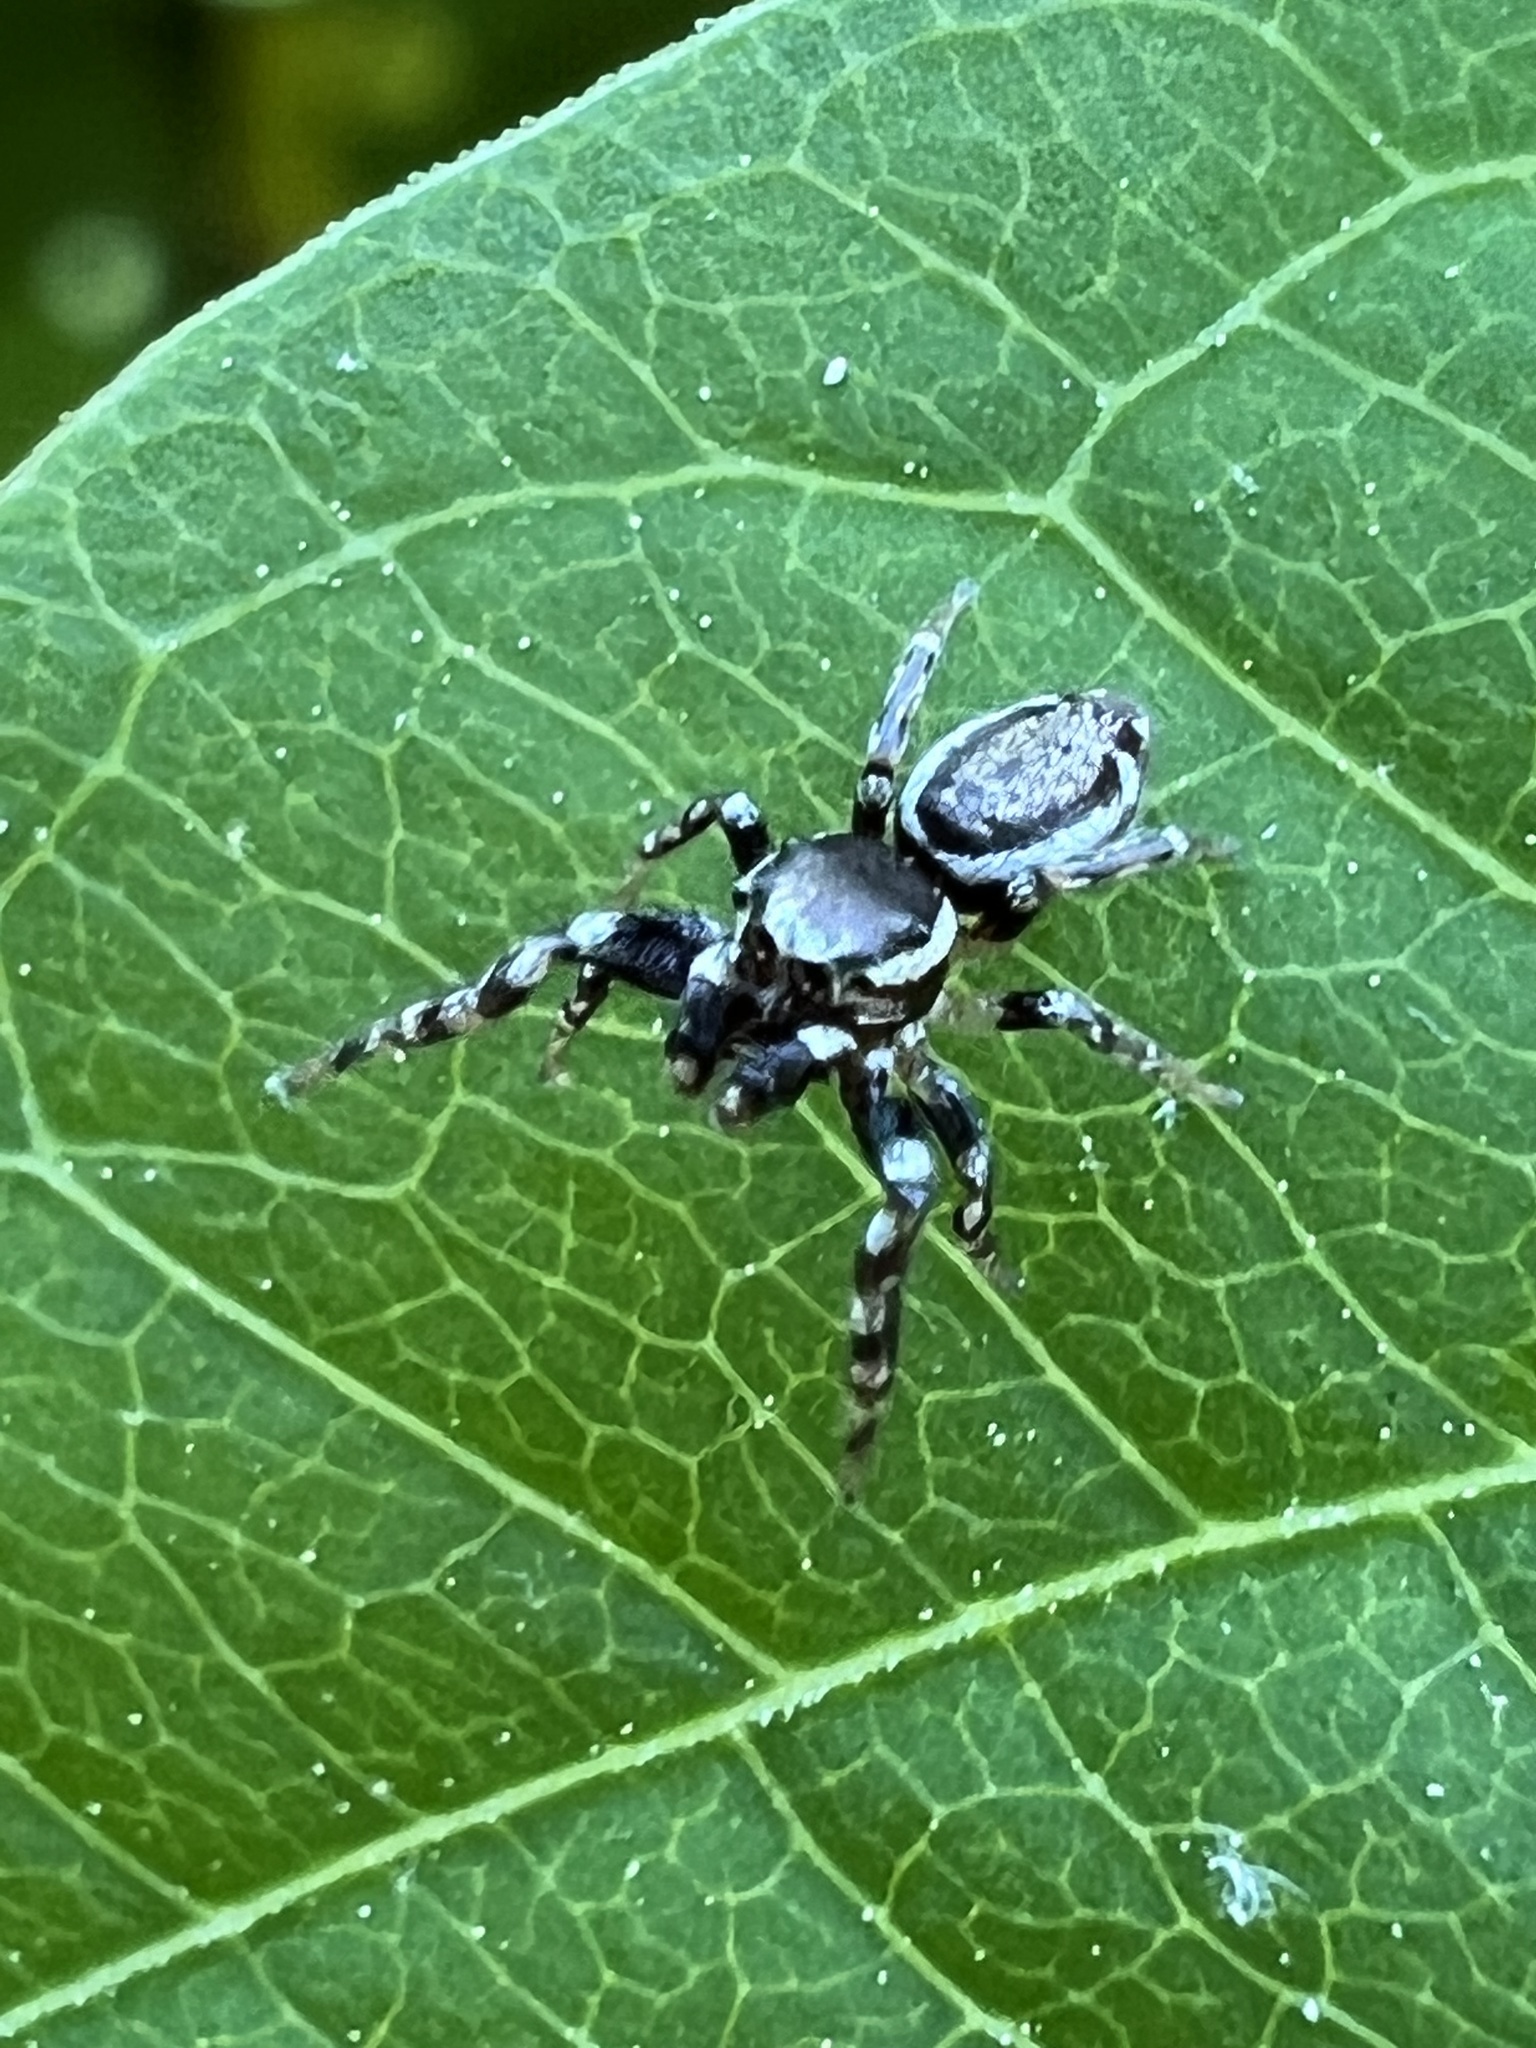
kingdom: Animalia
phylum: Arthropoda
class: Arachnida
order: Araneae
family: Salticidae
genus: Pelegrina
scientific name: Pelegrina proterva
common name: Common white-cheeked jumping spider
